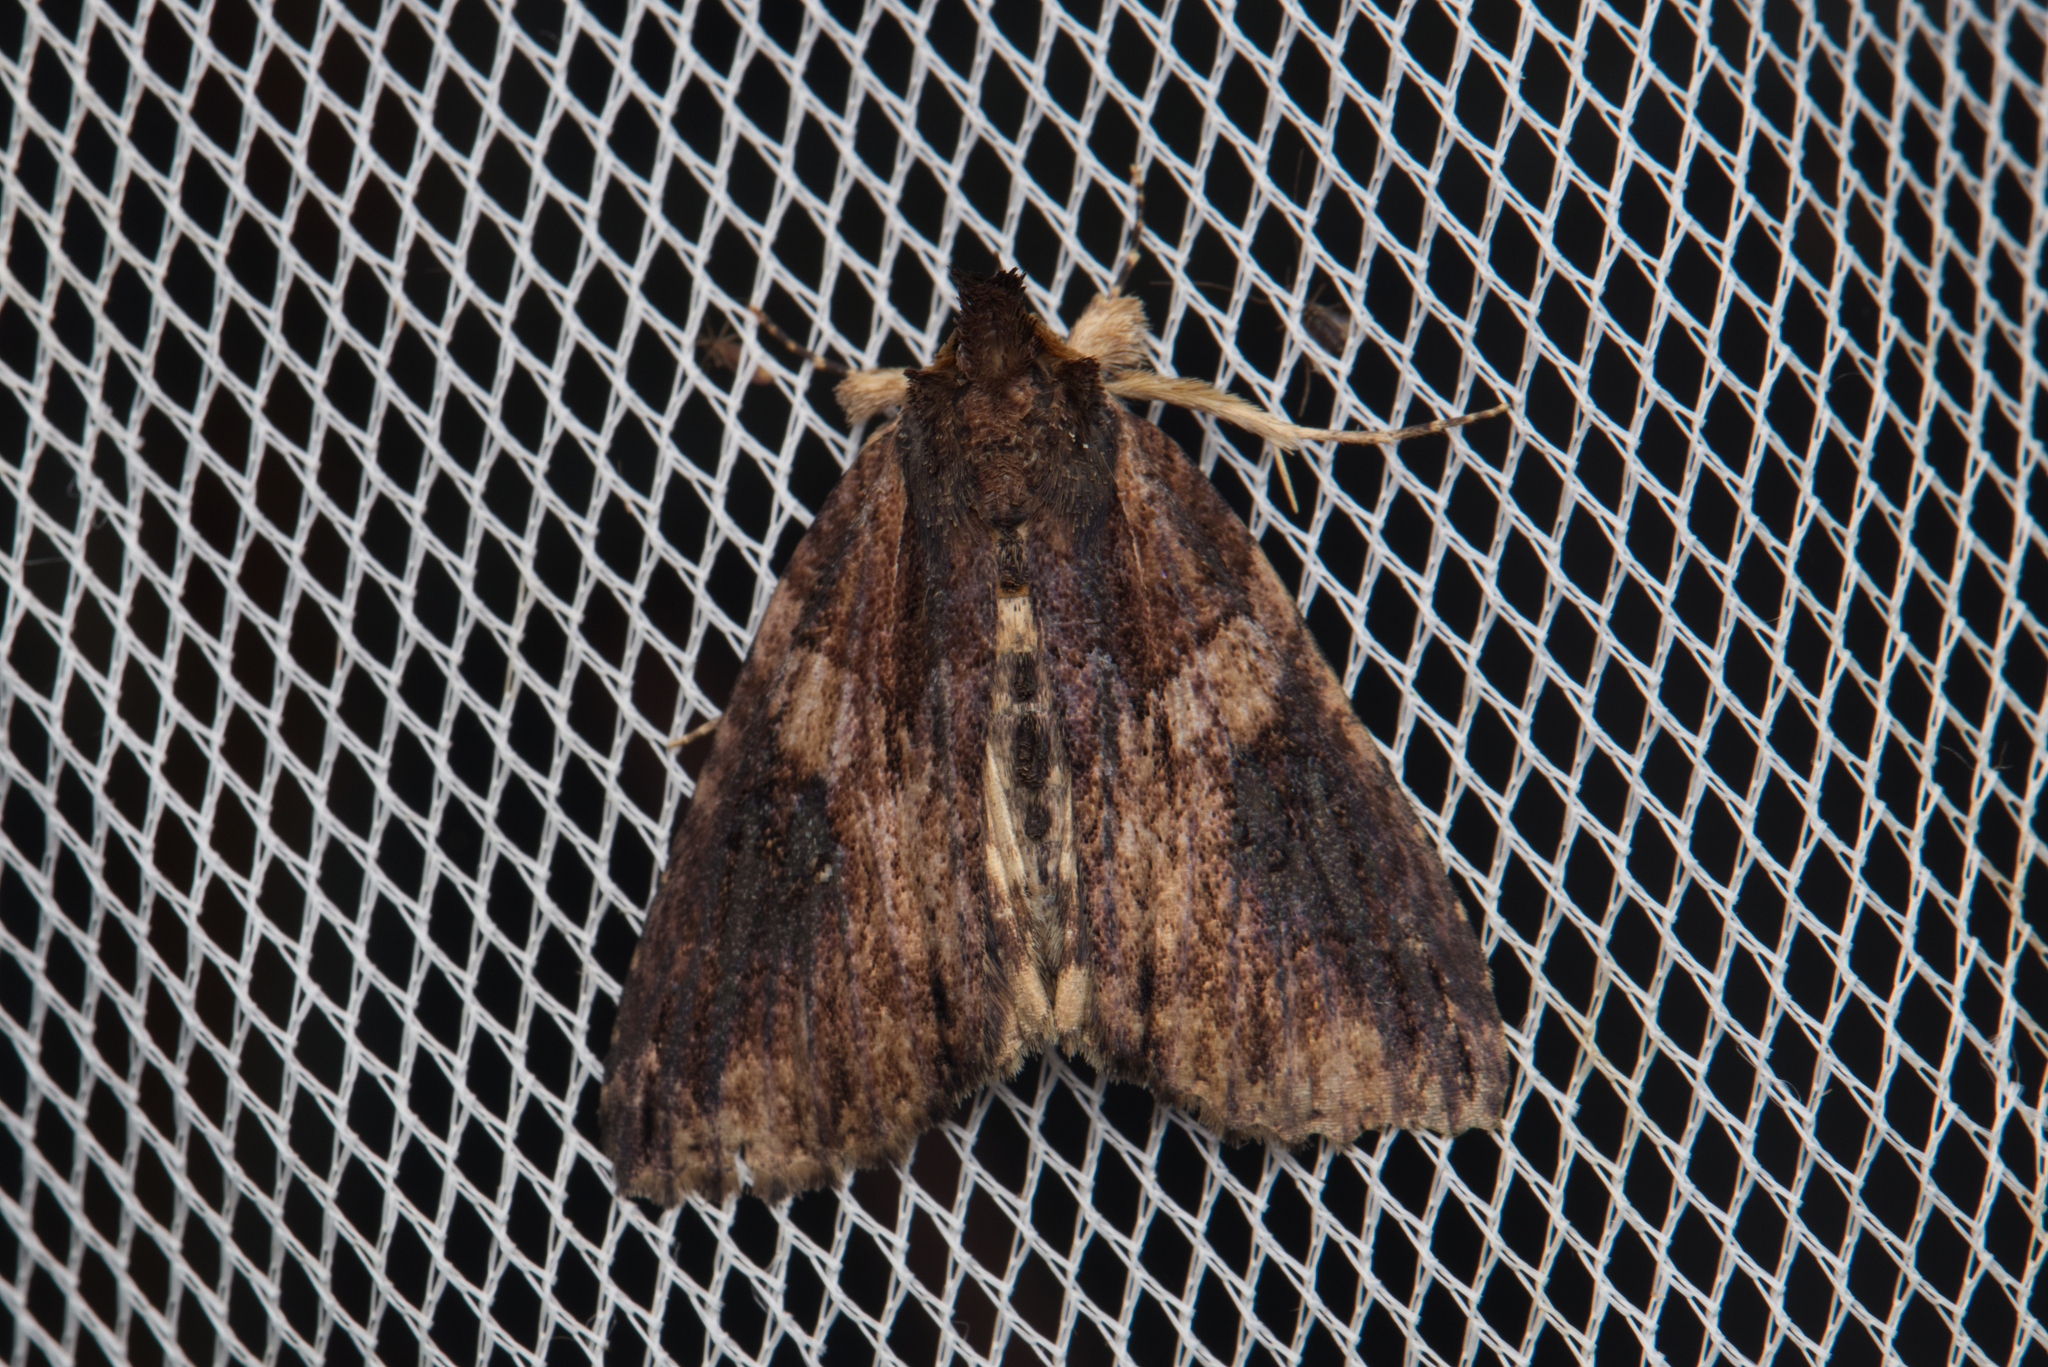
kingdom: Animalia
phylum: Arthropoda
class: Insecta
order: Lepidoptera
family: Erebidae
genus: Crioa
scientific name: Crioa hades
